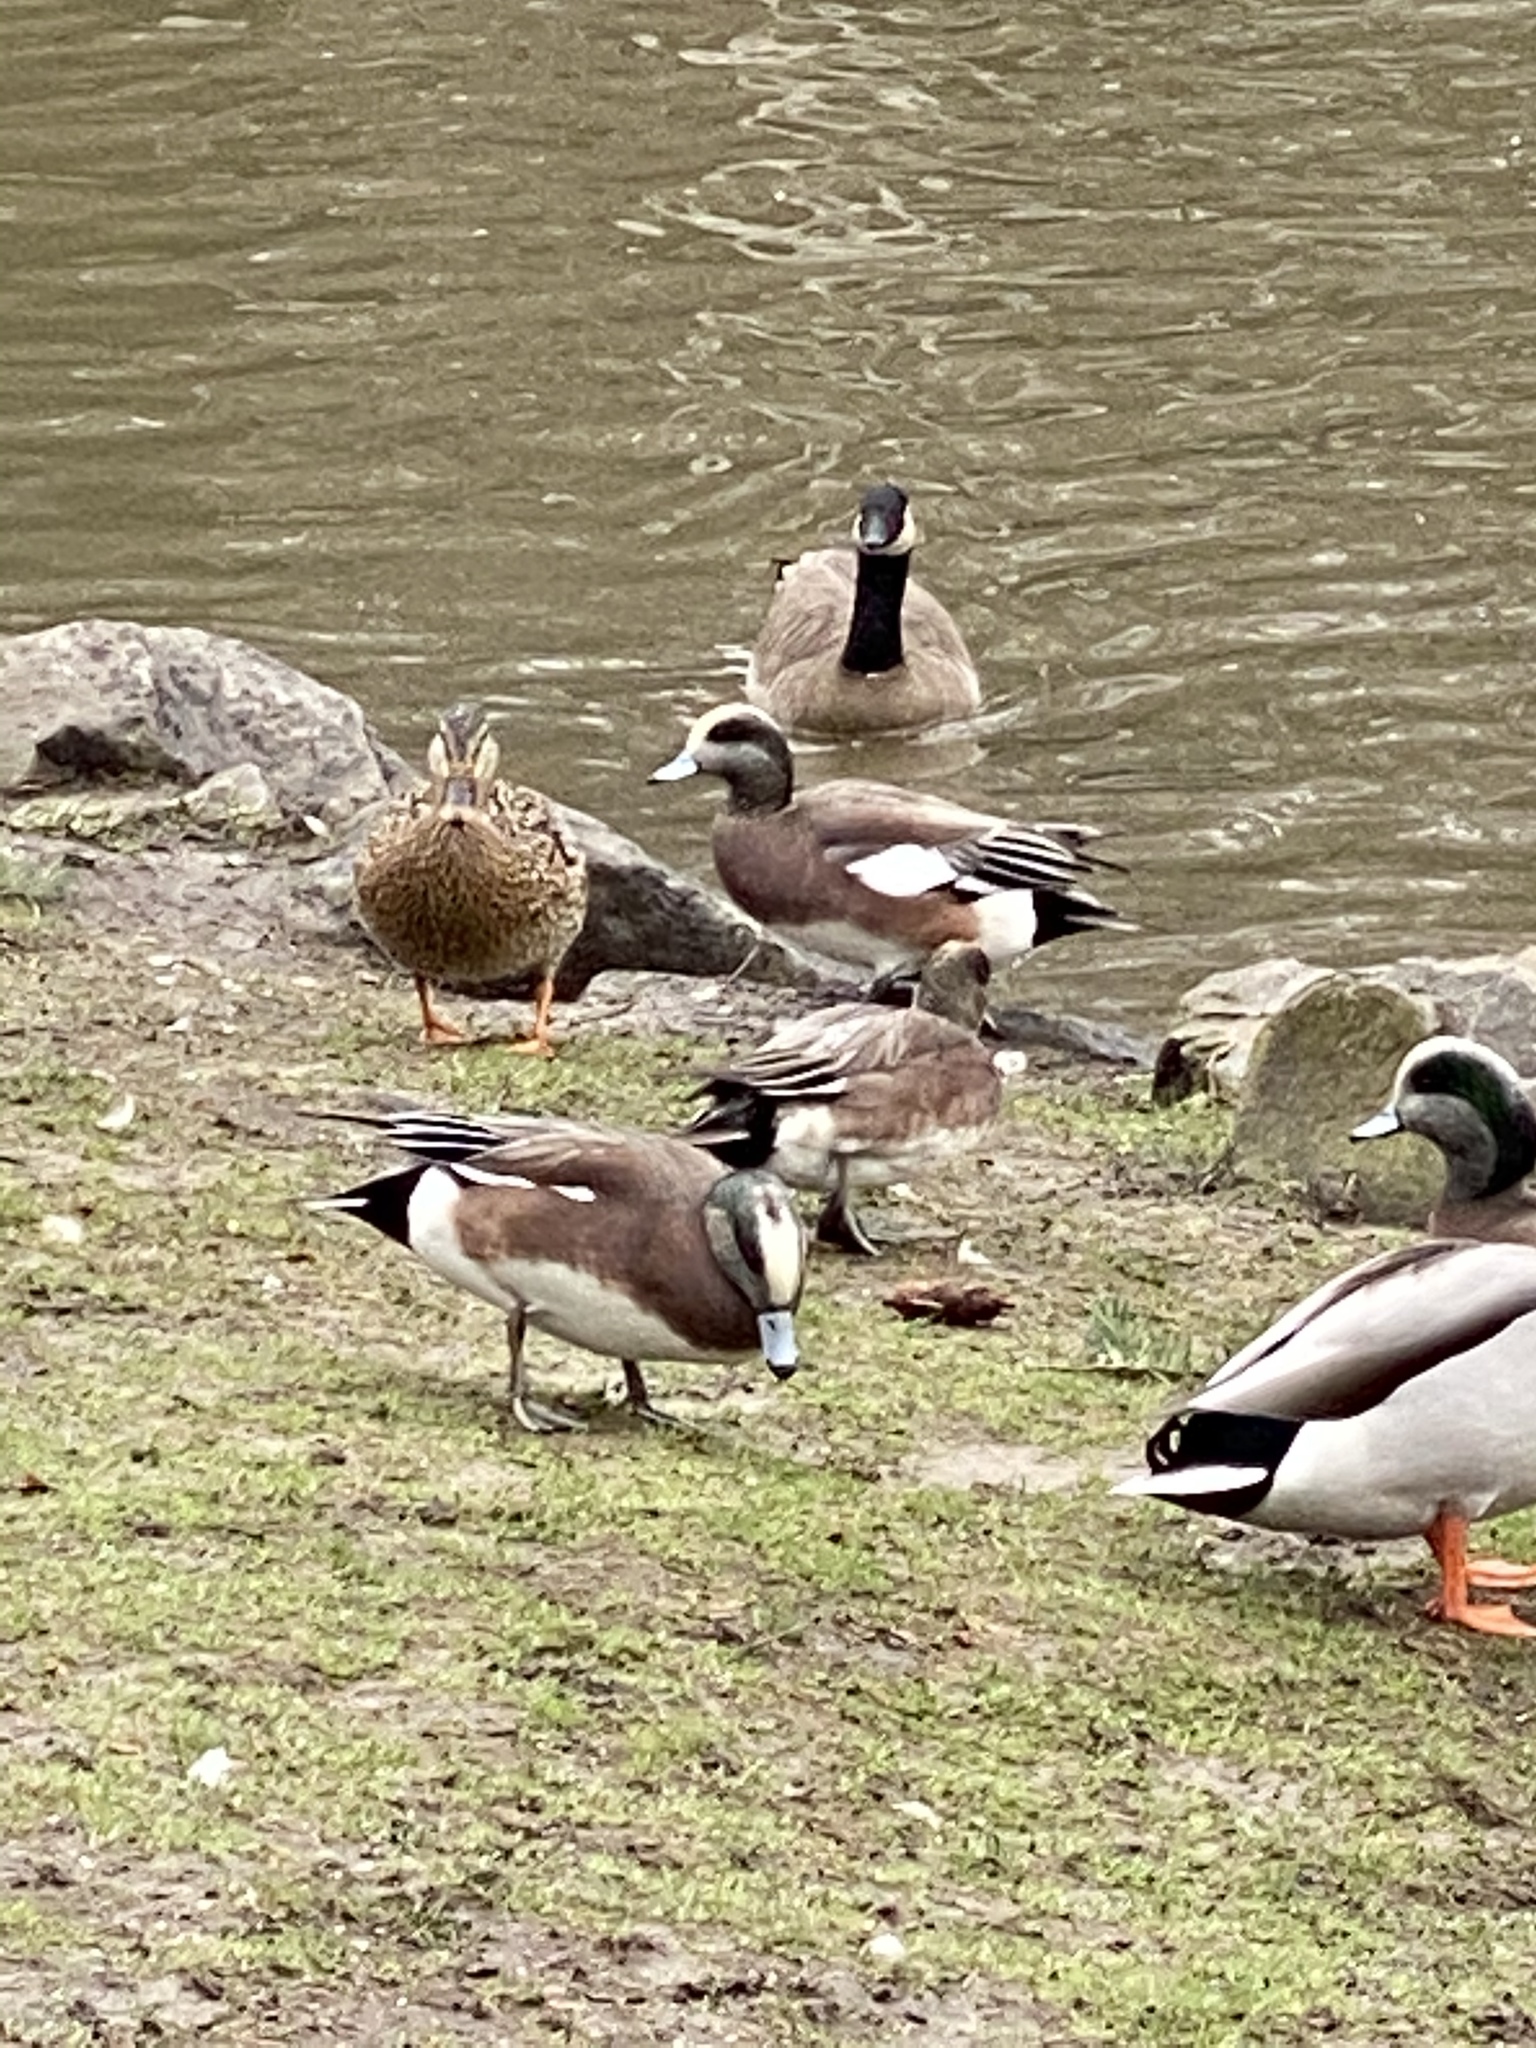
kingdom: Animalia
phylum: Chordata
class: Aves
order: Anseriformes
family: Anatidae
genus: Mareca
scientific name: Mareca americana
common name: American wigeon
